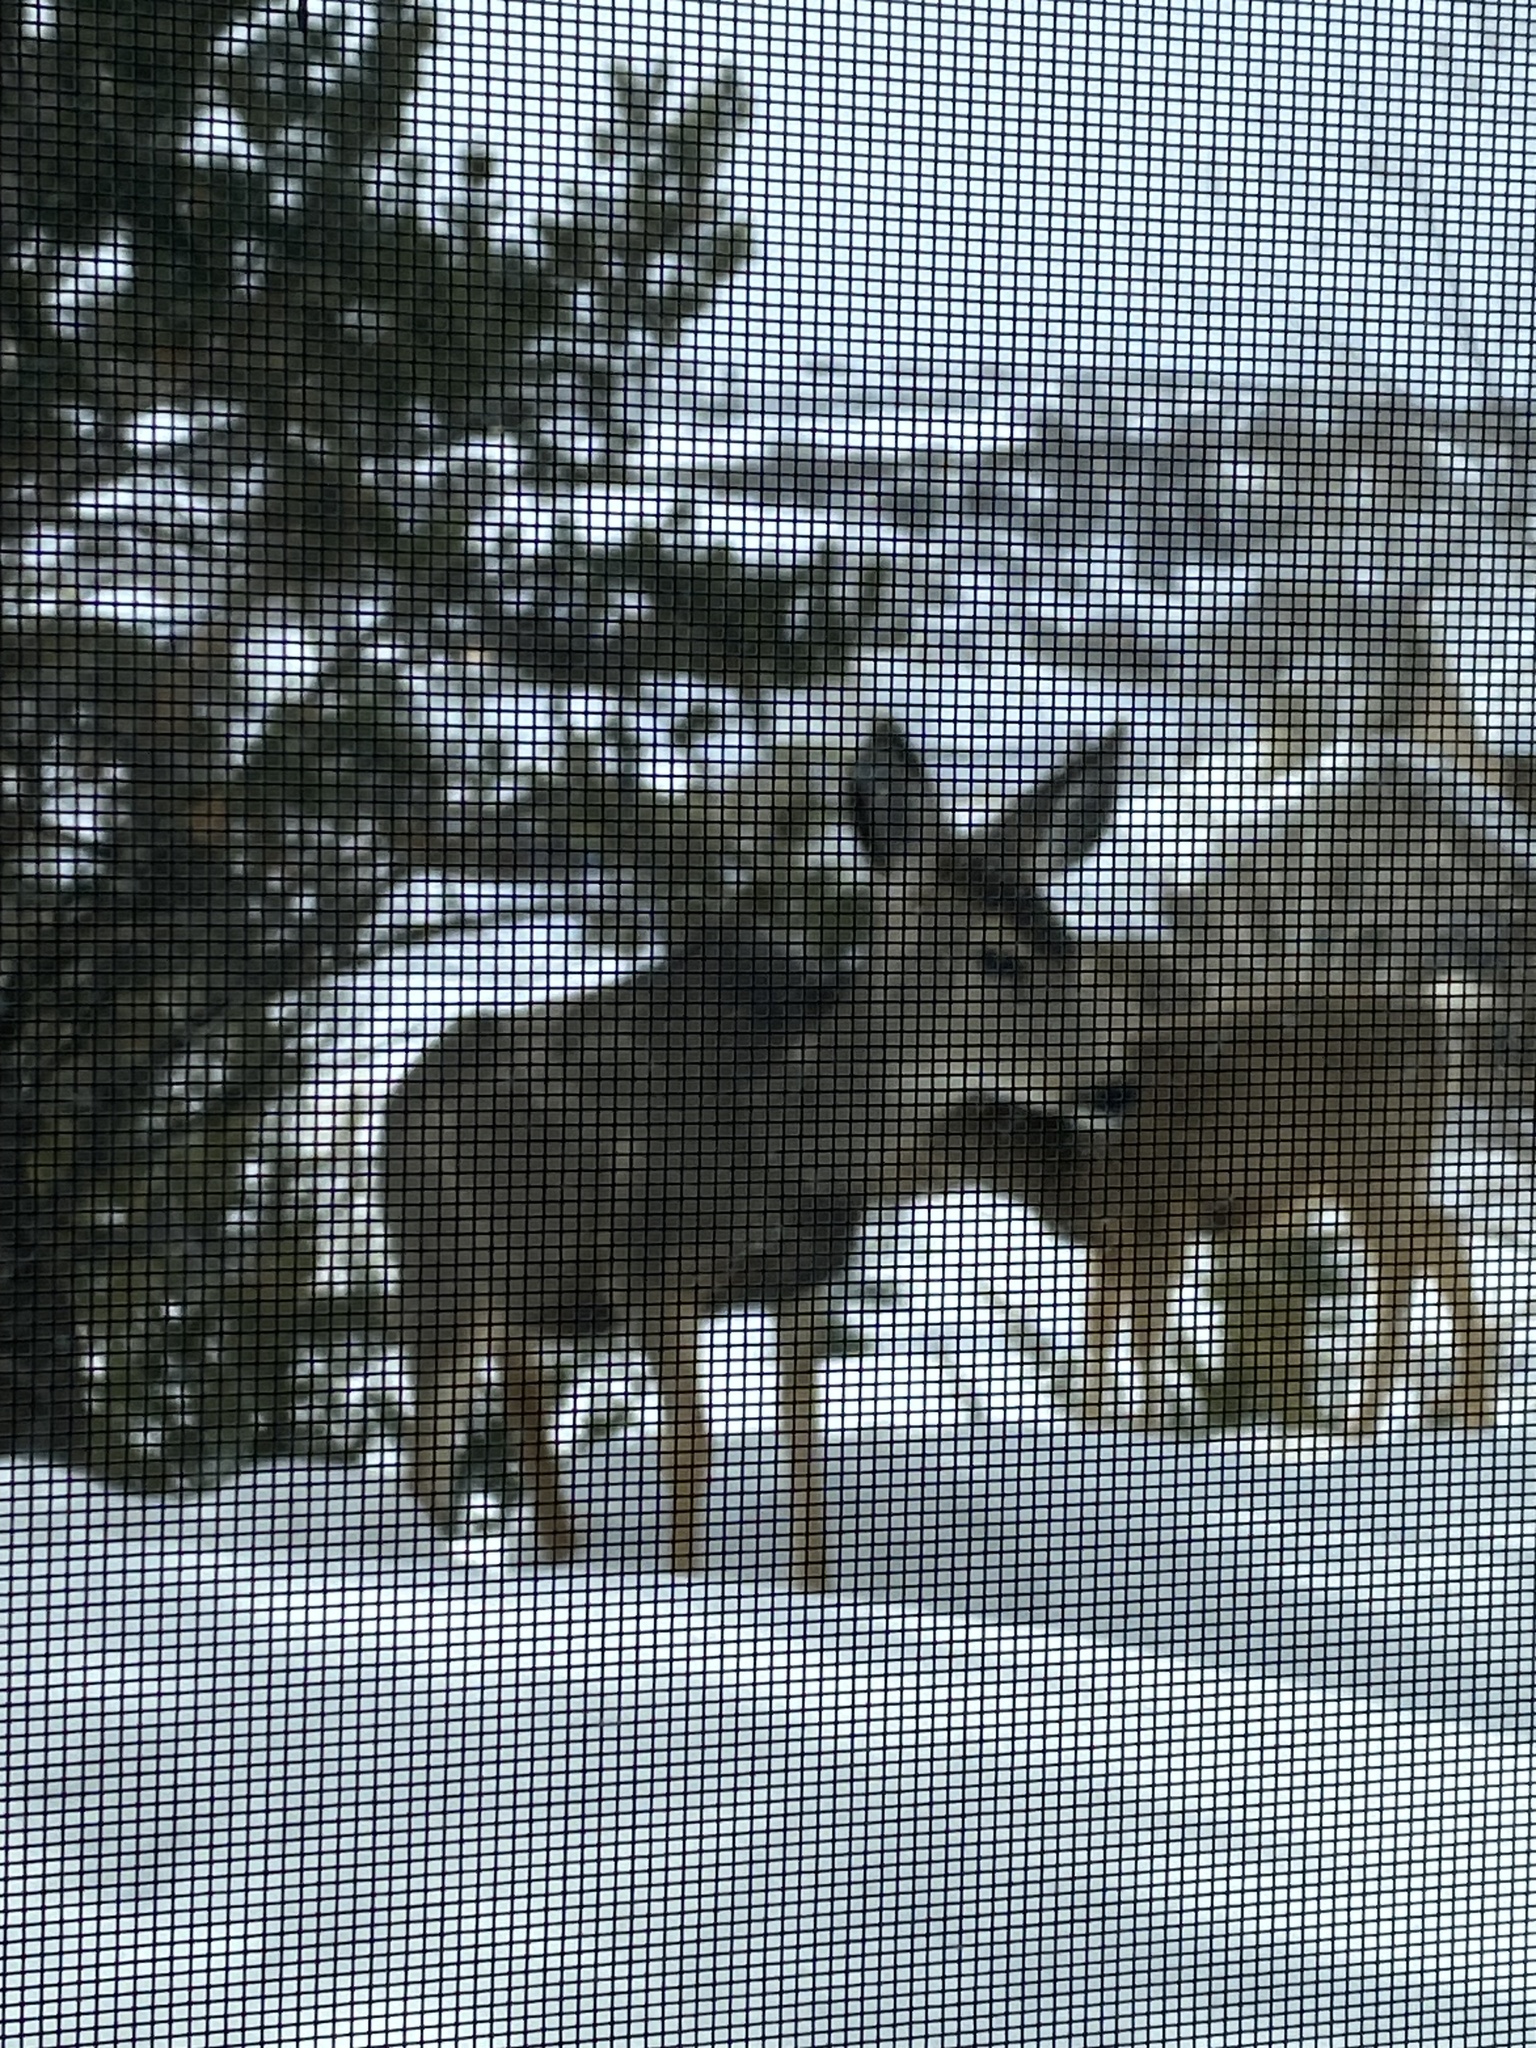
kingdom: Animalia
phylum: Chordata
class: Mammalia
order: Artiodactyla
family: Cervidae
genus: Odocoileus
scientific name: Odocoileus hemionus
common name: Mule deer
